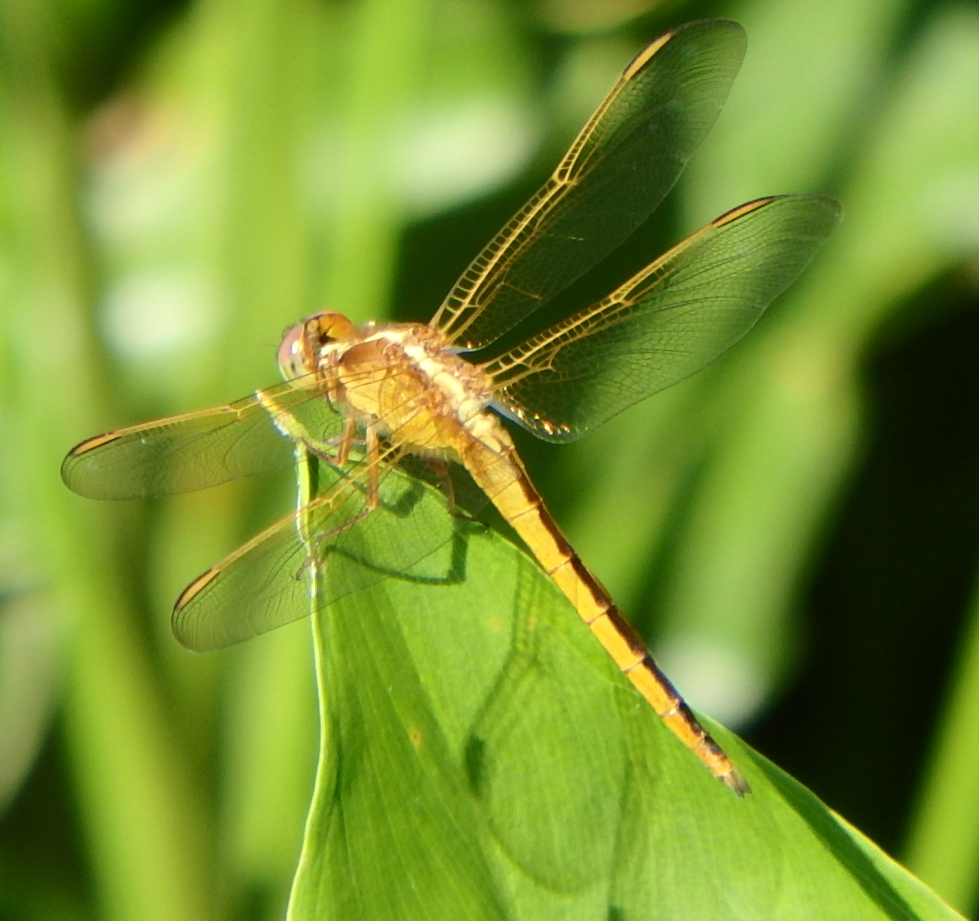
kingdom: Animalia
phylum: Arthropoda
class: Insecta
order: Odonata
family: Libellulidae
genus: Libellula
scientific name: Libellula needhami
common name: Needham's skimmer
